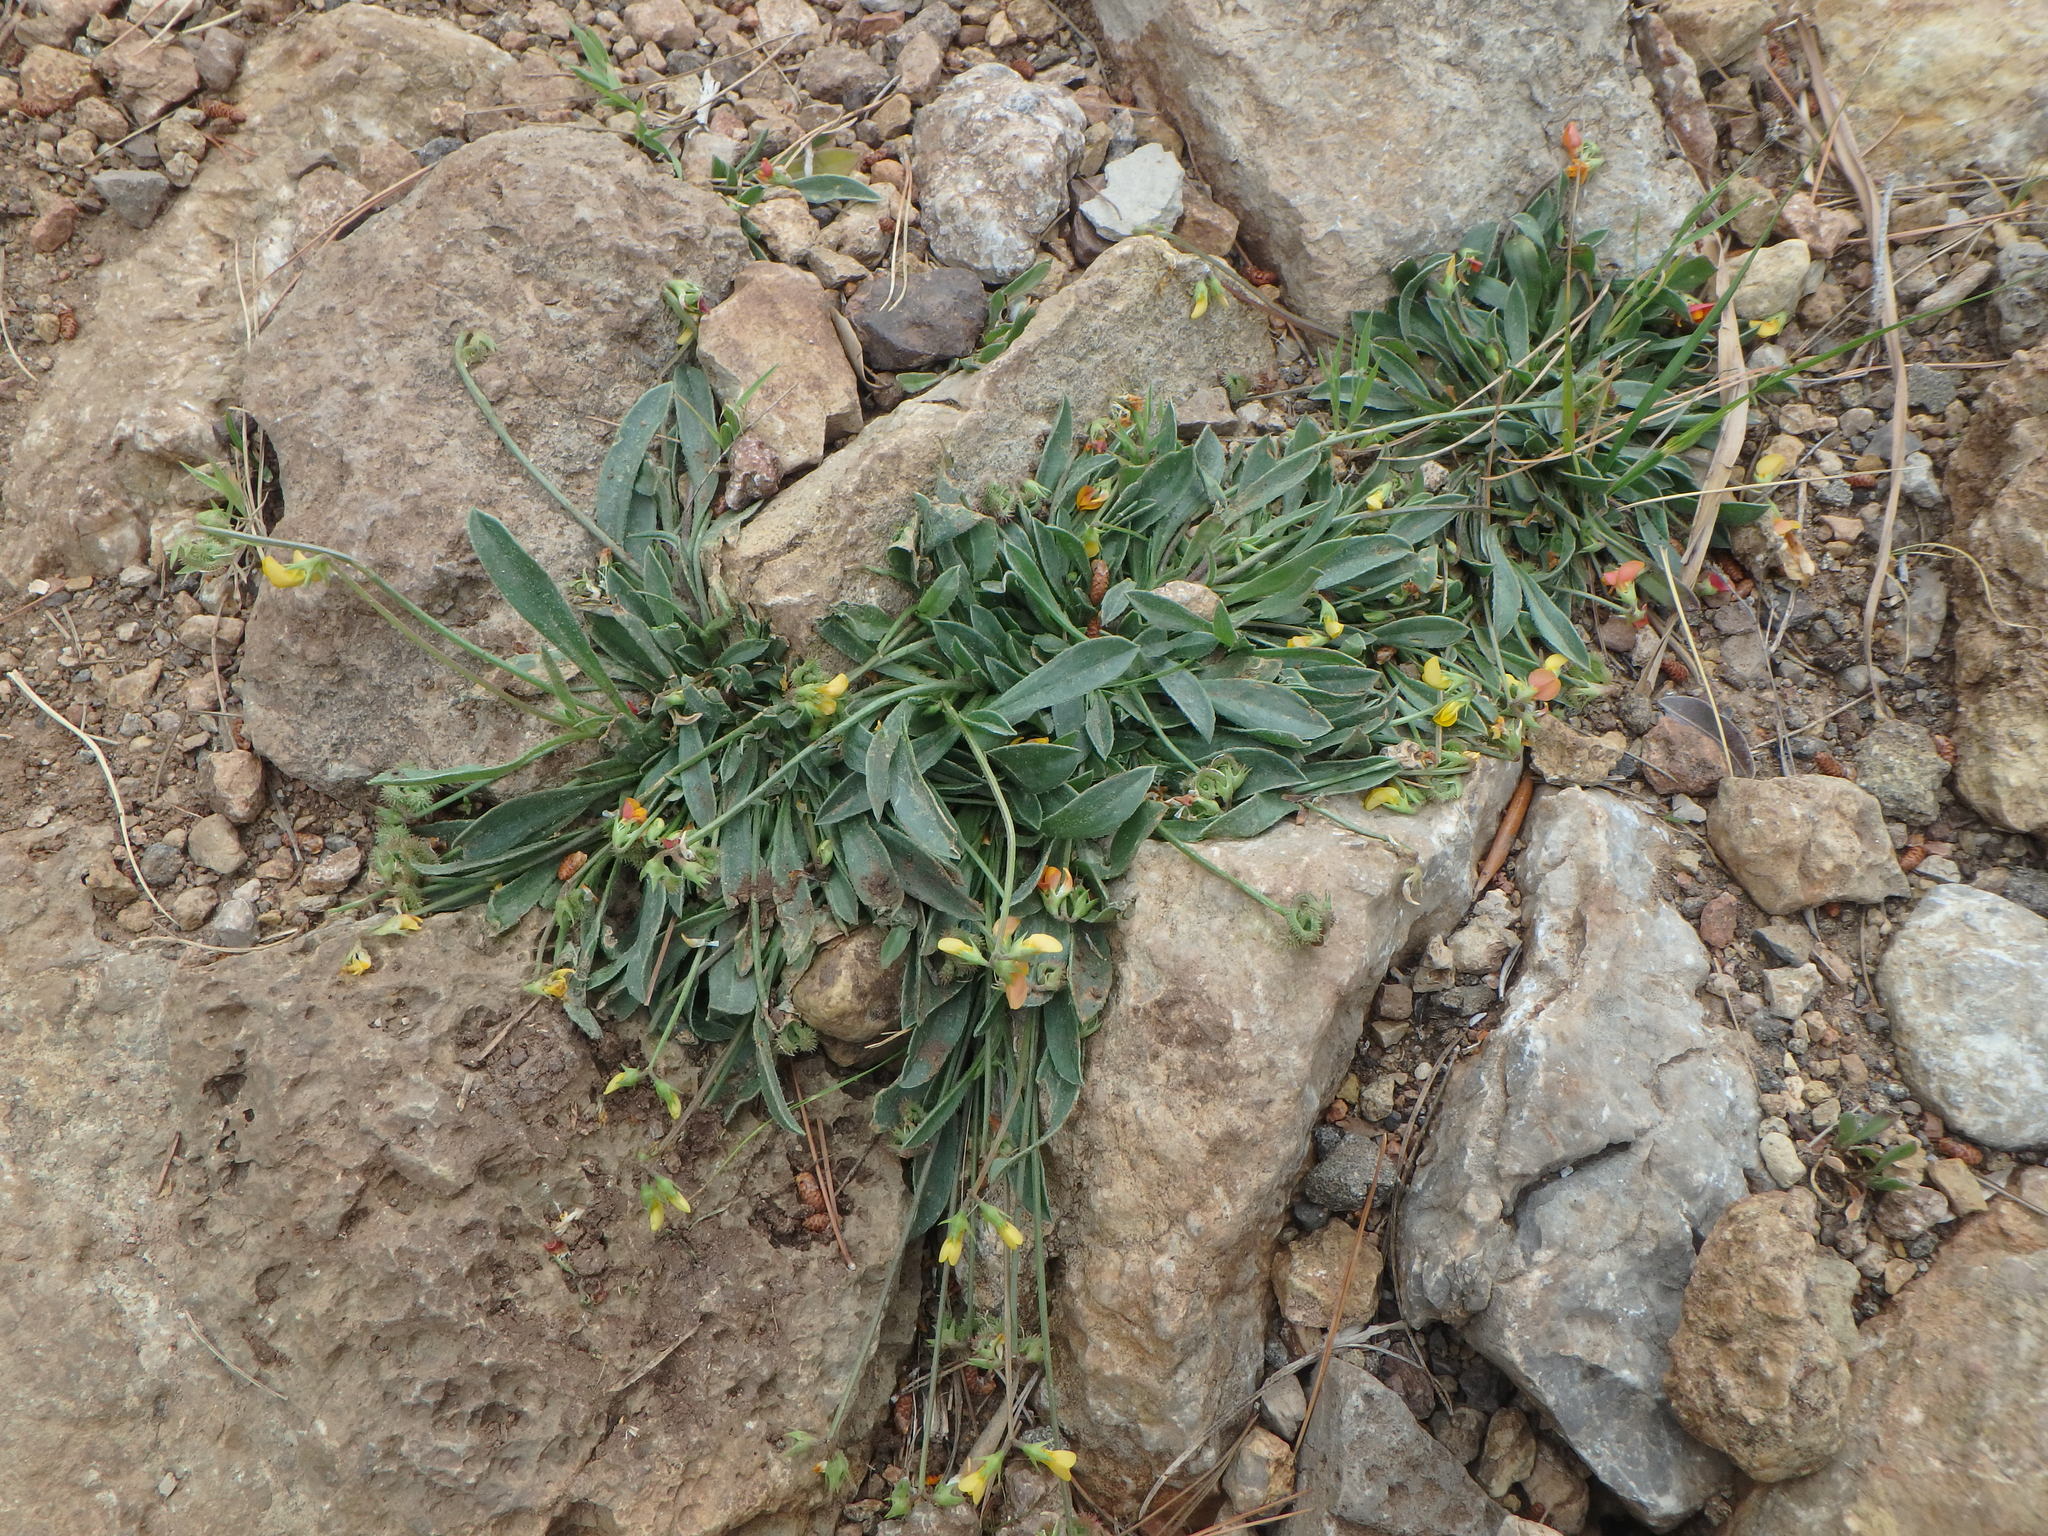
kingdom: Plantae
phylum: Tracheophyta
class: Magnoliopsida
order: Fabales
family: Fabaceae
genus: Scorpiurus
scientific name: Scorpiurus muricatus
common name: Caterpillar-plant
